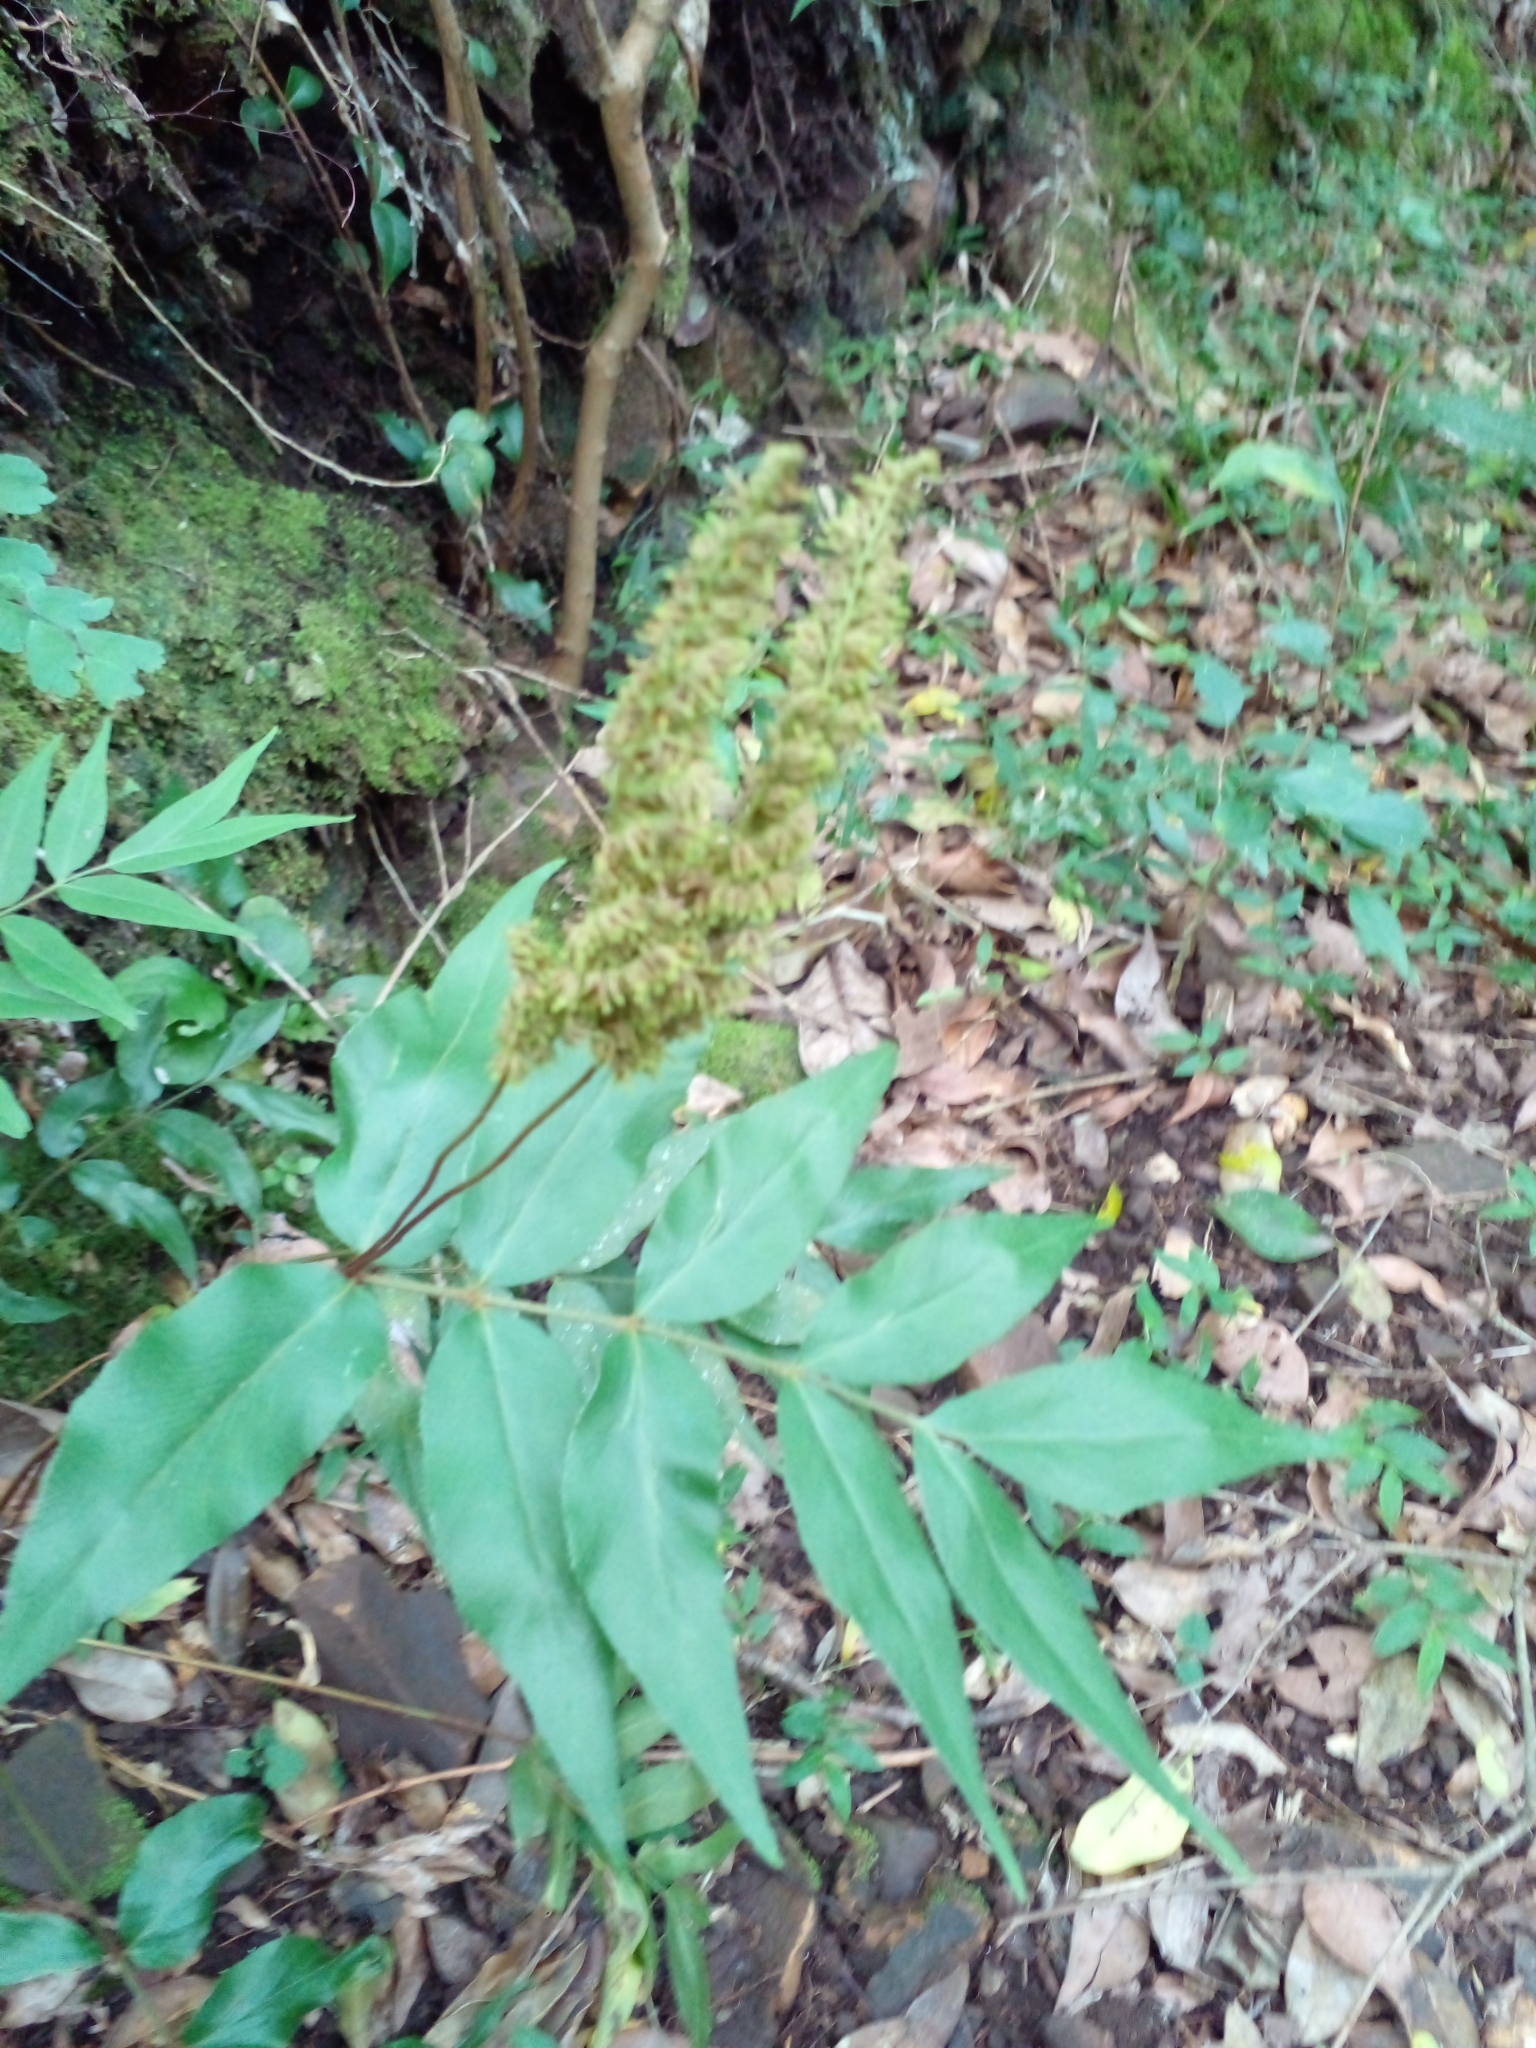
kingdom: Plantae
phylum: Tracheophyta
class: Polypodiopsida
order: Schizaeales
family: Anemiaceae
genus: Anemia
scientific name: Anemia phyllitidis
